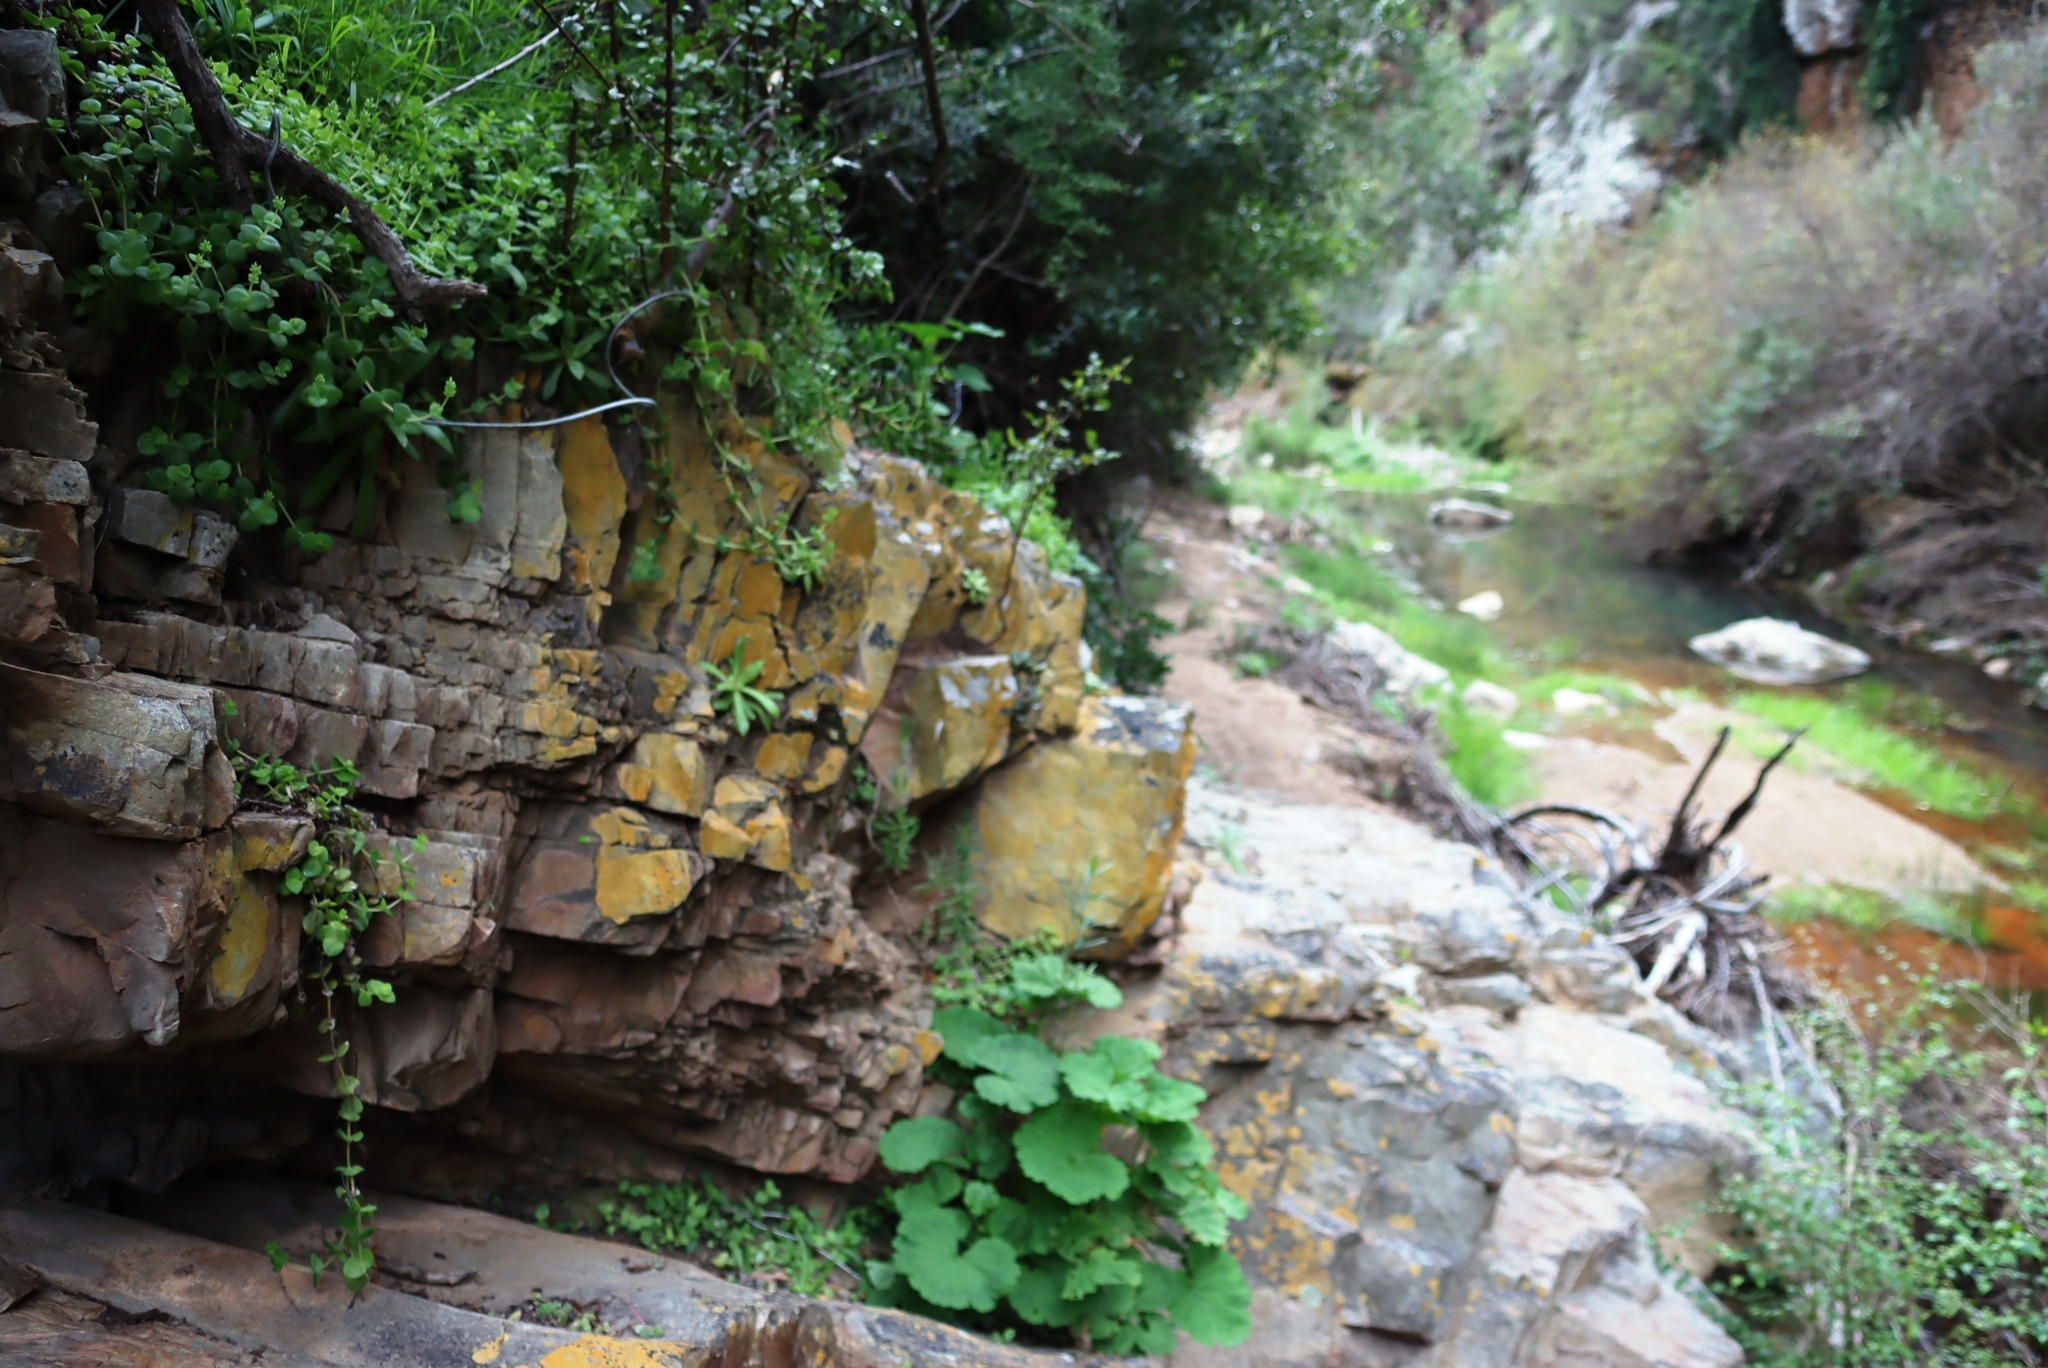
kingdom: Plantae
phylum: Tracheophyta
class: Magnoliopsida
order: Geraniales
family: Geraniaceae
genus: Pelargonium
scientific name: Pelargonium zonale
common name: Horseshoe geranium
